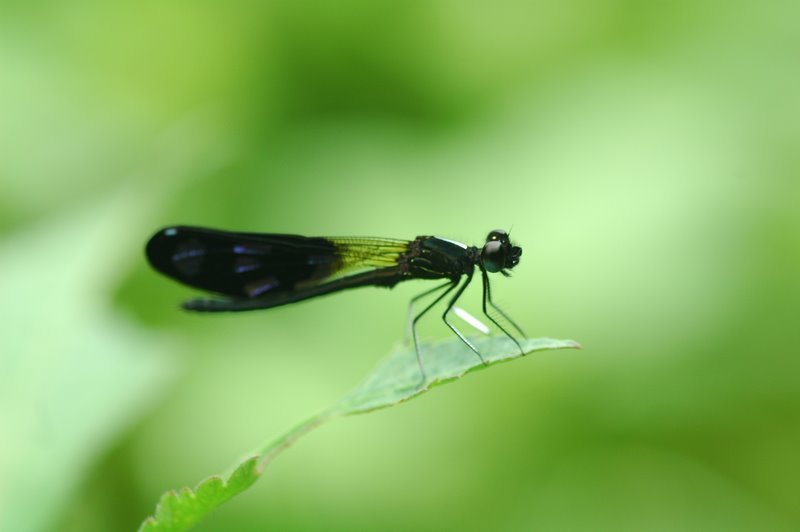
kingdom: Animalia
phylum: Arthropoda
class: Insecta
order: Odonata
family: Chlorocyphidae
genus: Aristocypha
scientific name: Aristocypha quadrimaculata
